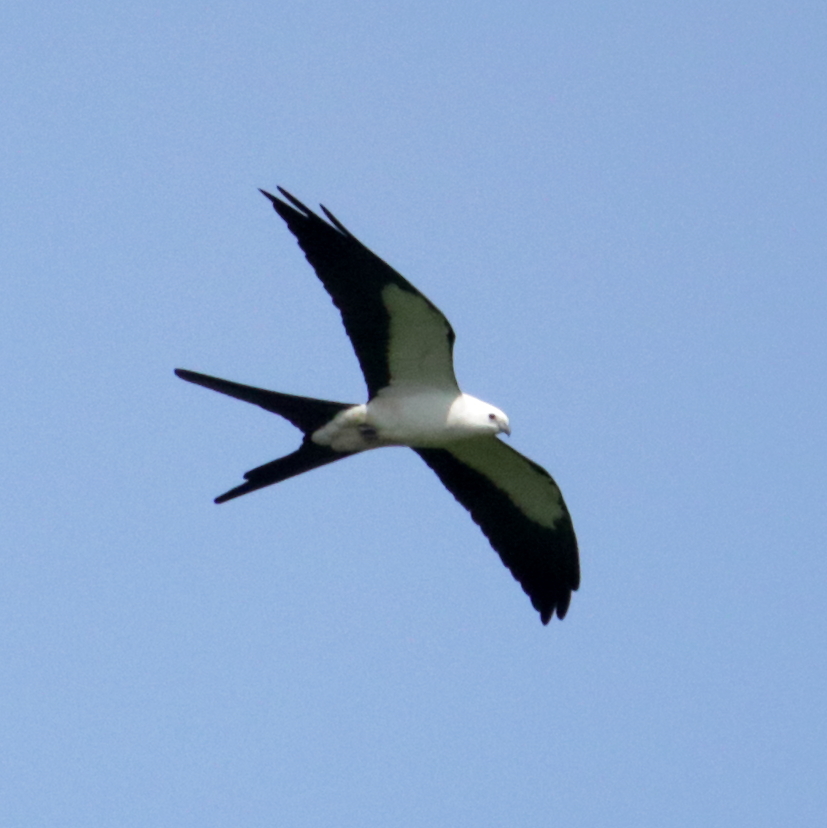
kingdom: Animalia
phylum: Chordata
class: Aves
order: Accipitriformes
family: Accipitridae
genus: Elanoides
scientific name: Elanoides forficatus
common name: Swallow-tailed kite
